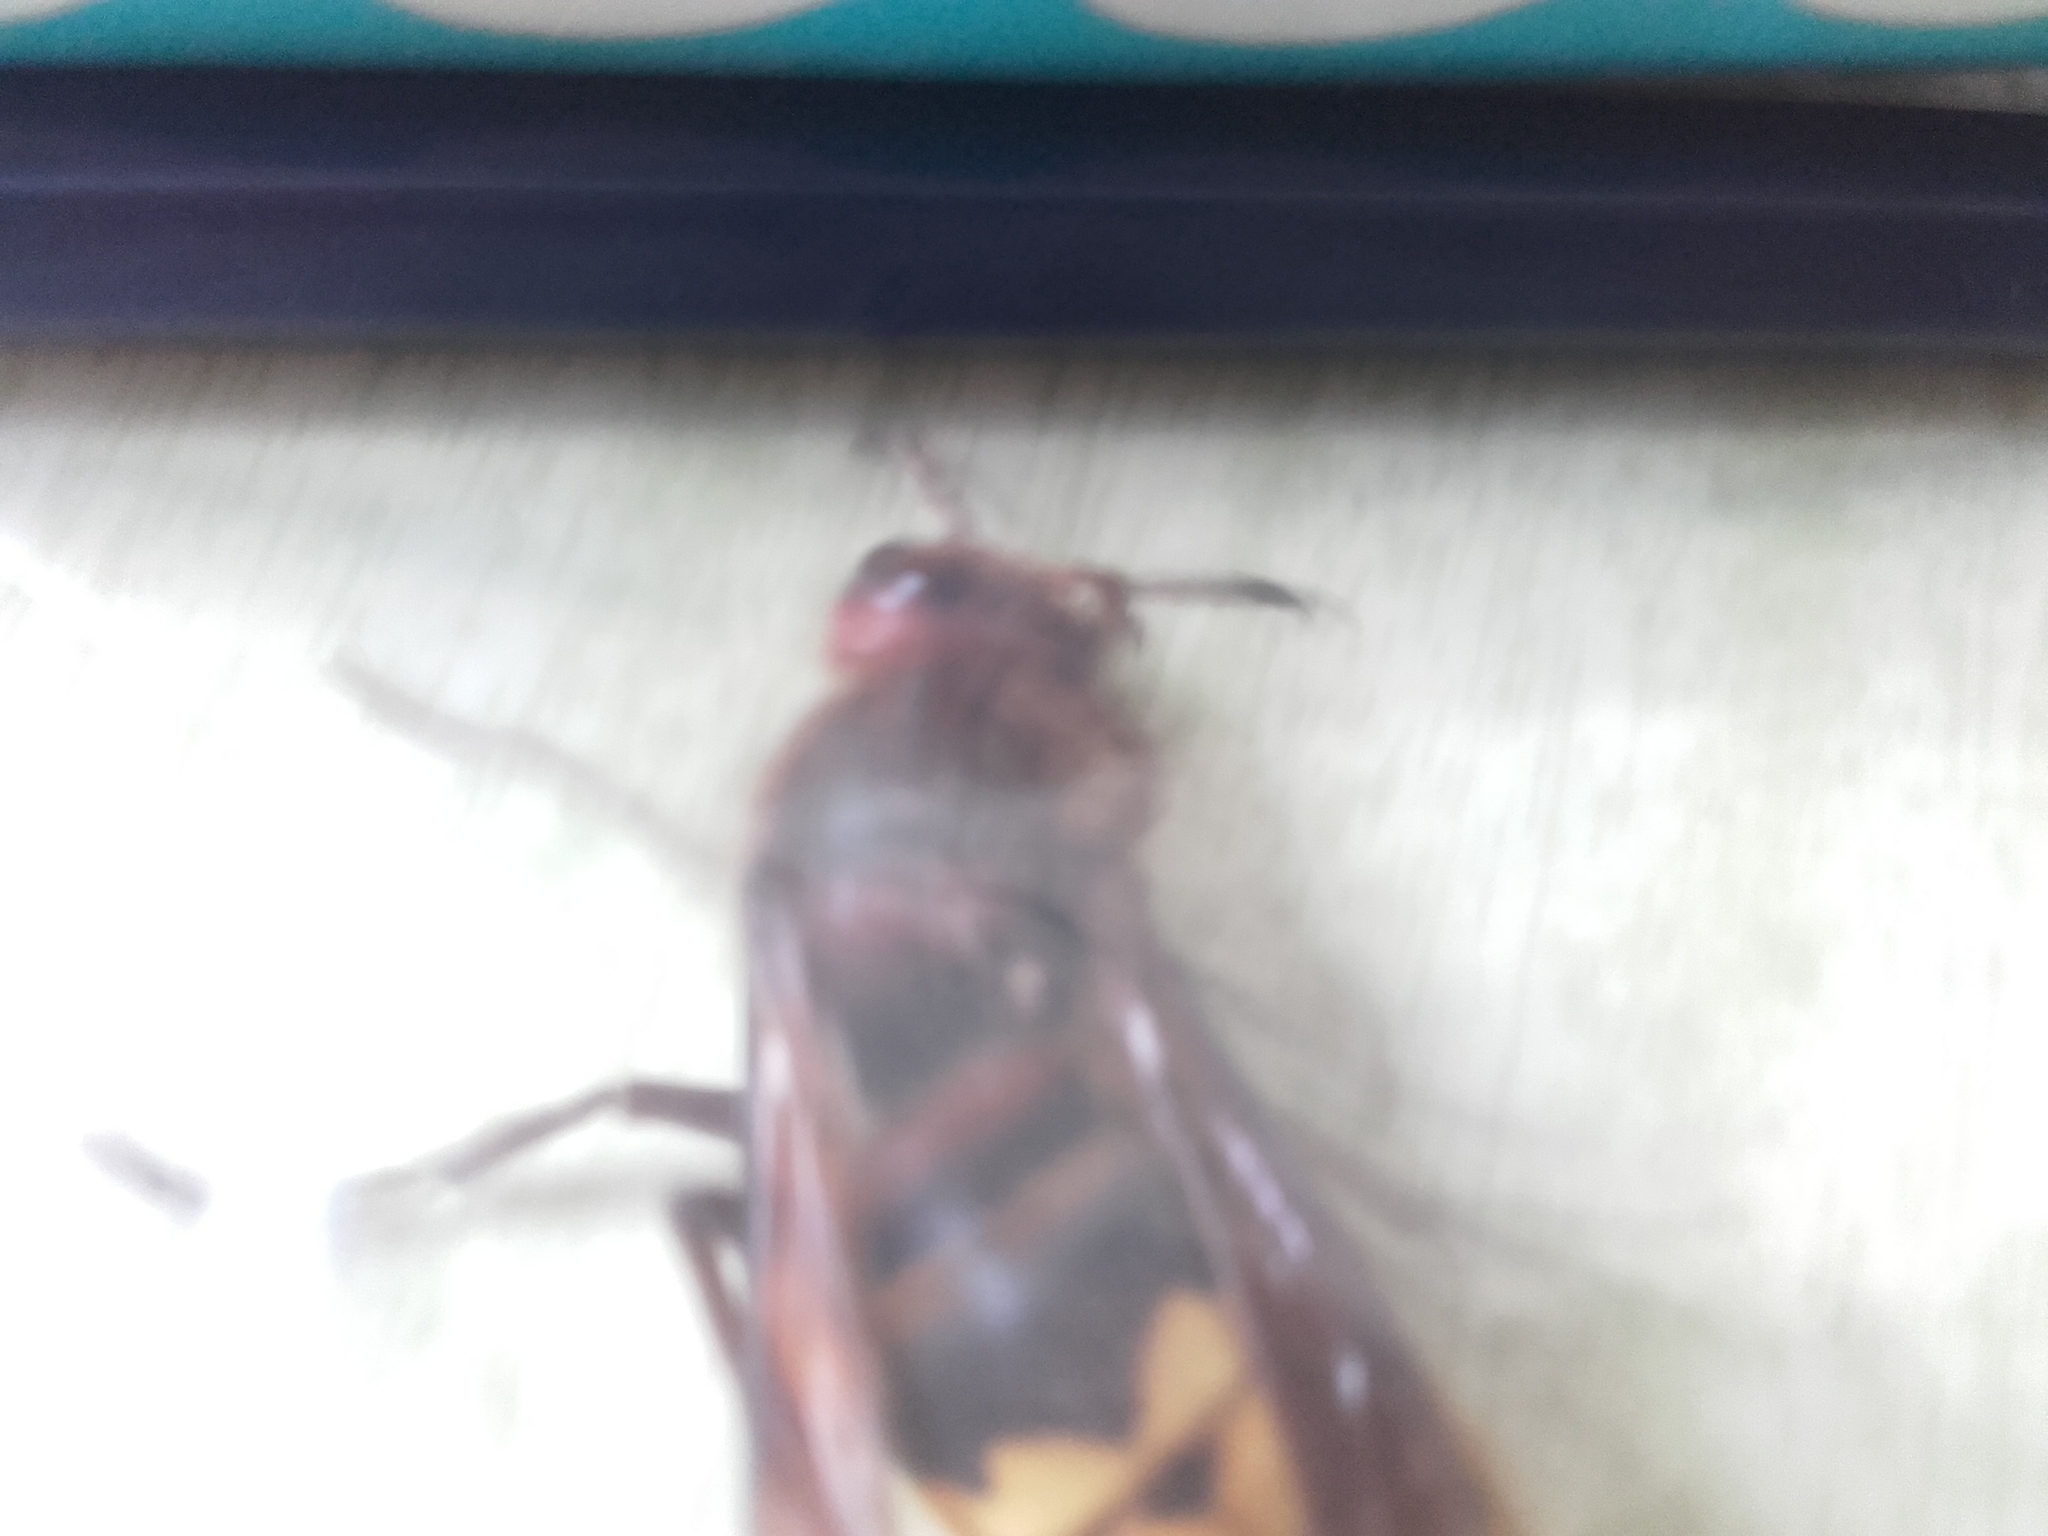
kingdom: Animalia
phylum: Arthropoda
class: Insecta
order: Hymenoptera
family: Vespidae
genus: Vespa
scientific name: Vespa crabro
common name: Hornet
